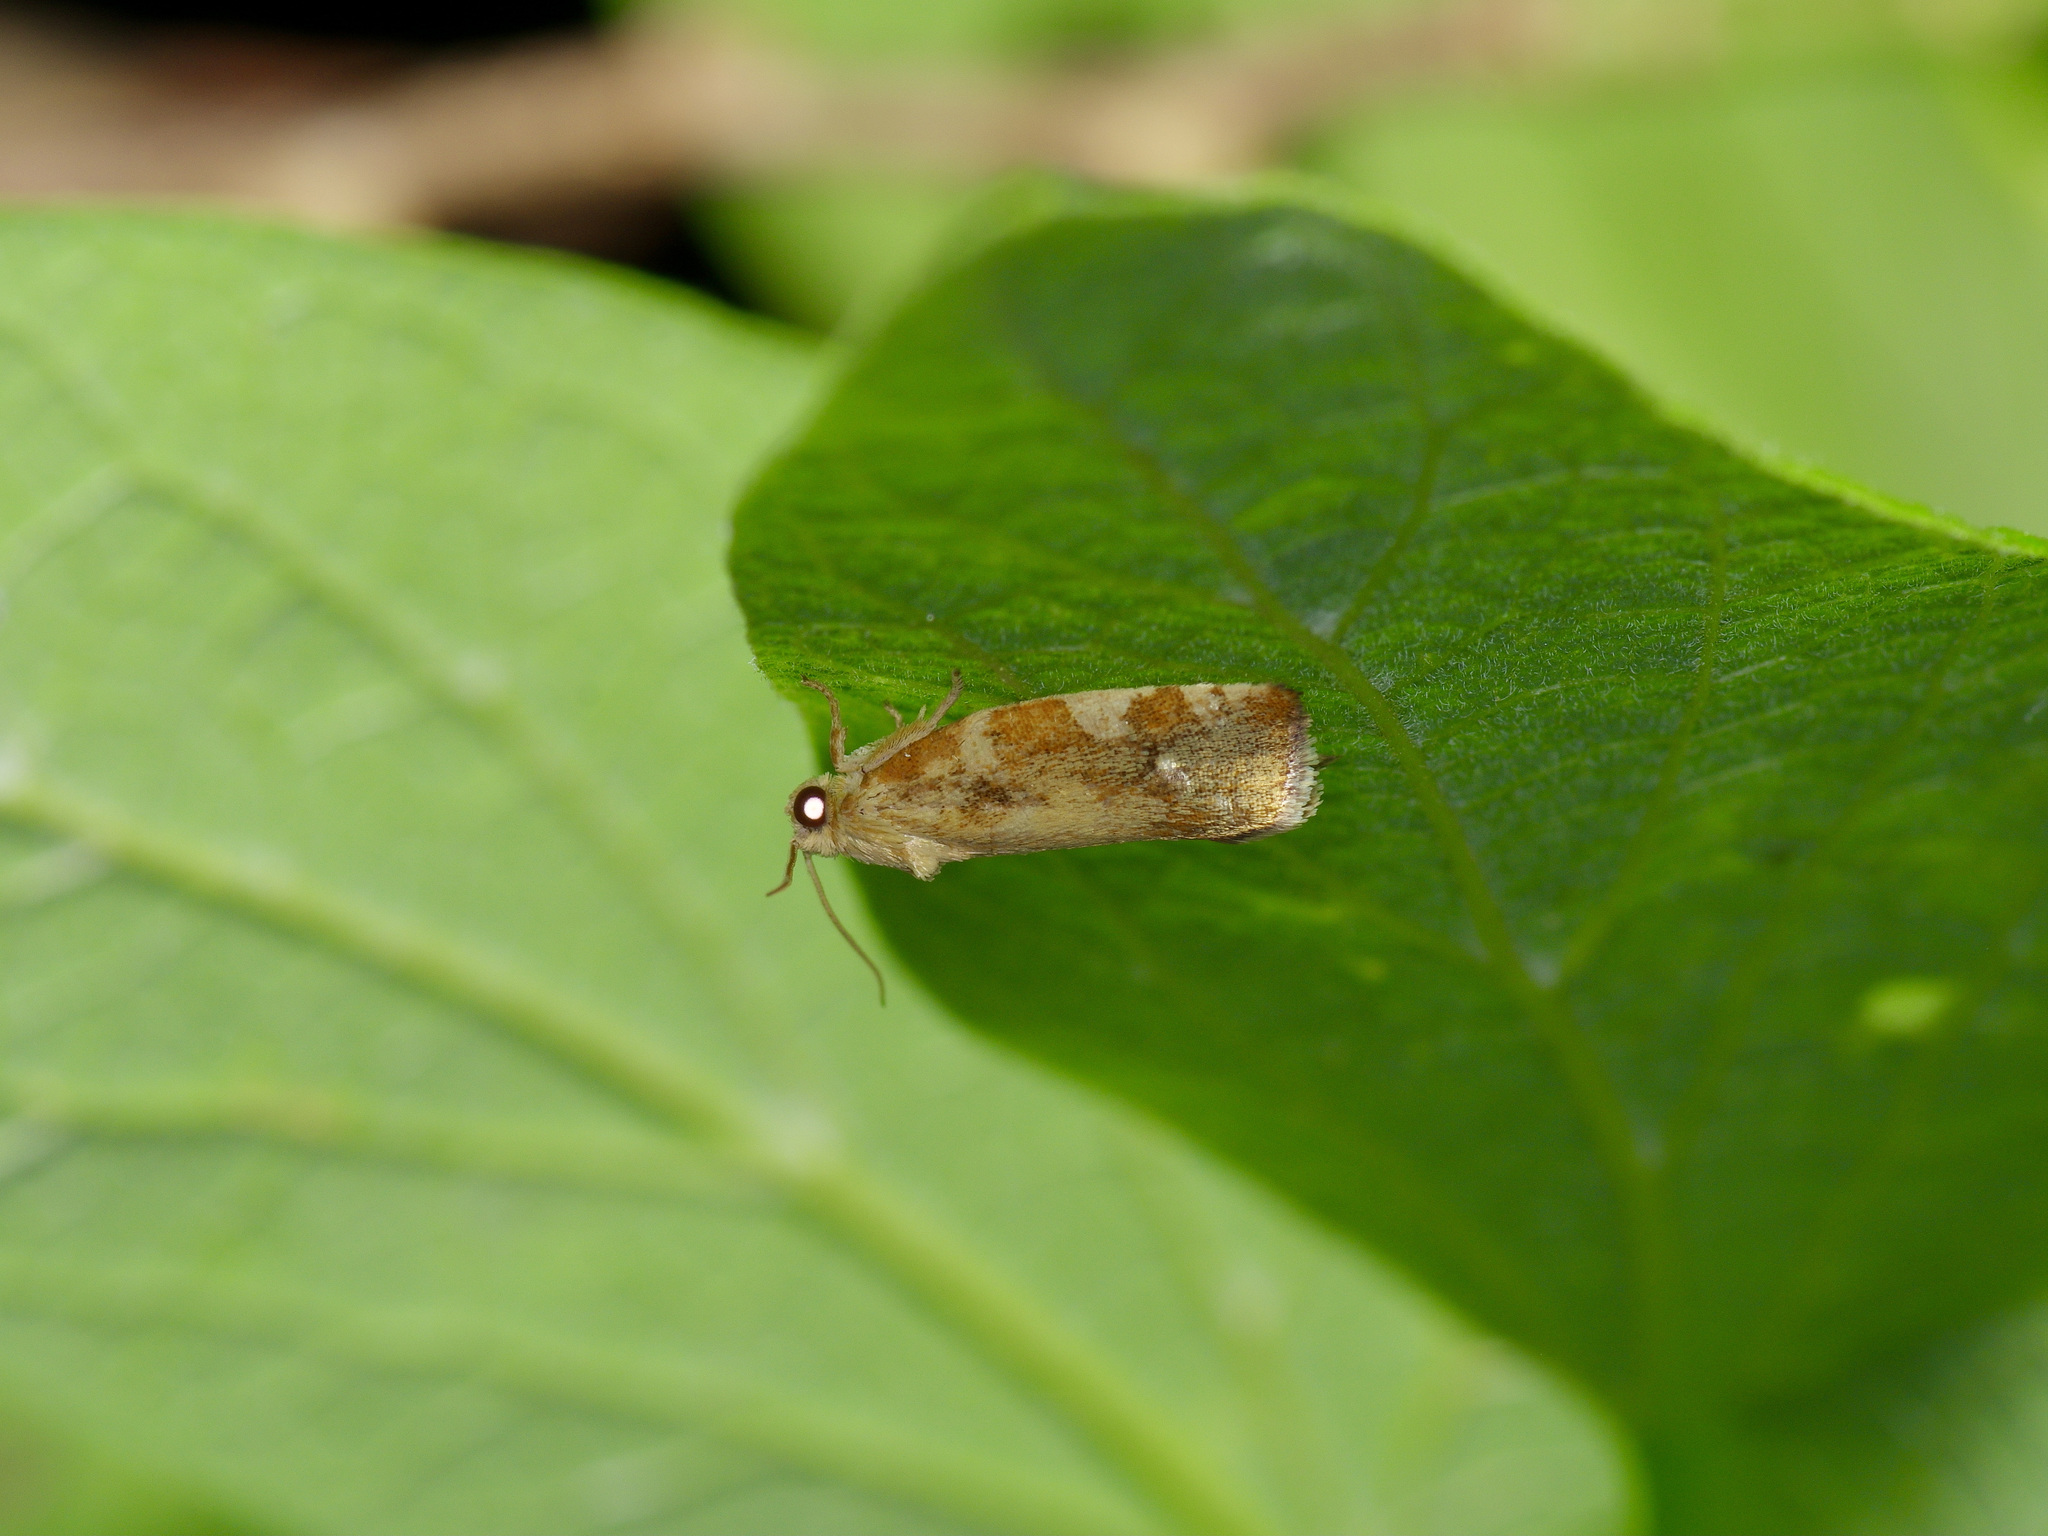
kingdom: Animalia
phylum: Arthropoda
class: Insecta
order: Lepidoptera
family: Tortricidae
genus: Archips
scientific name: Archips argyrospila
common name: Fruit-tree leafroller moth
